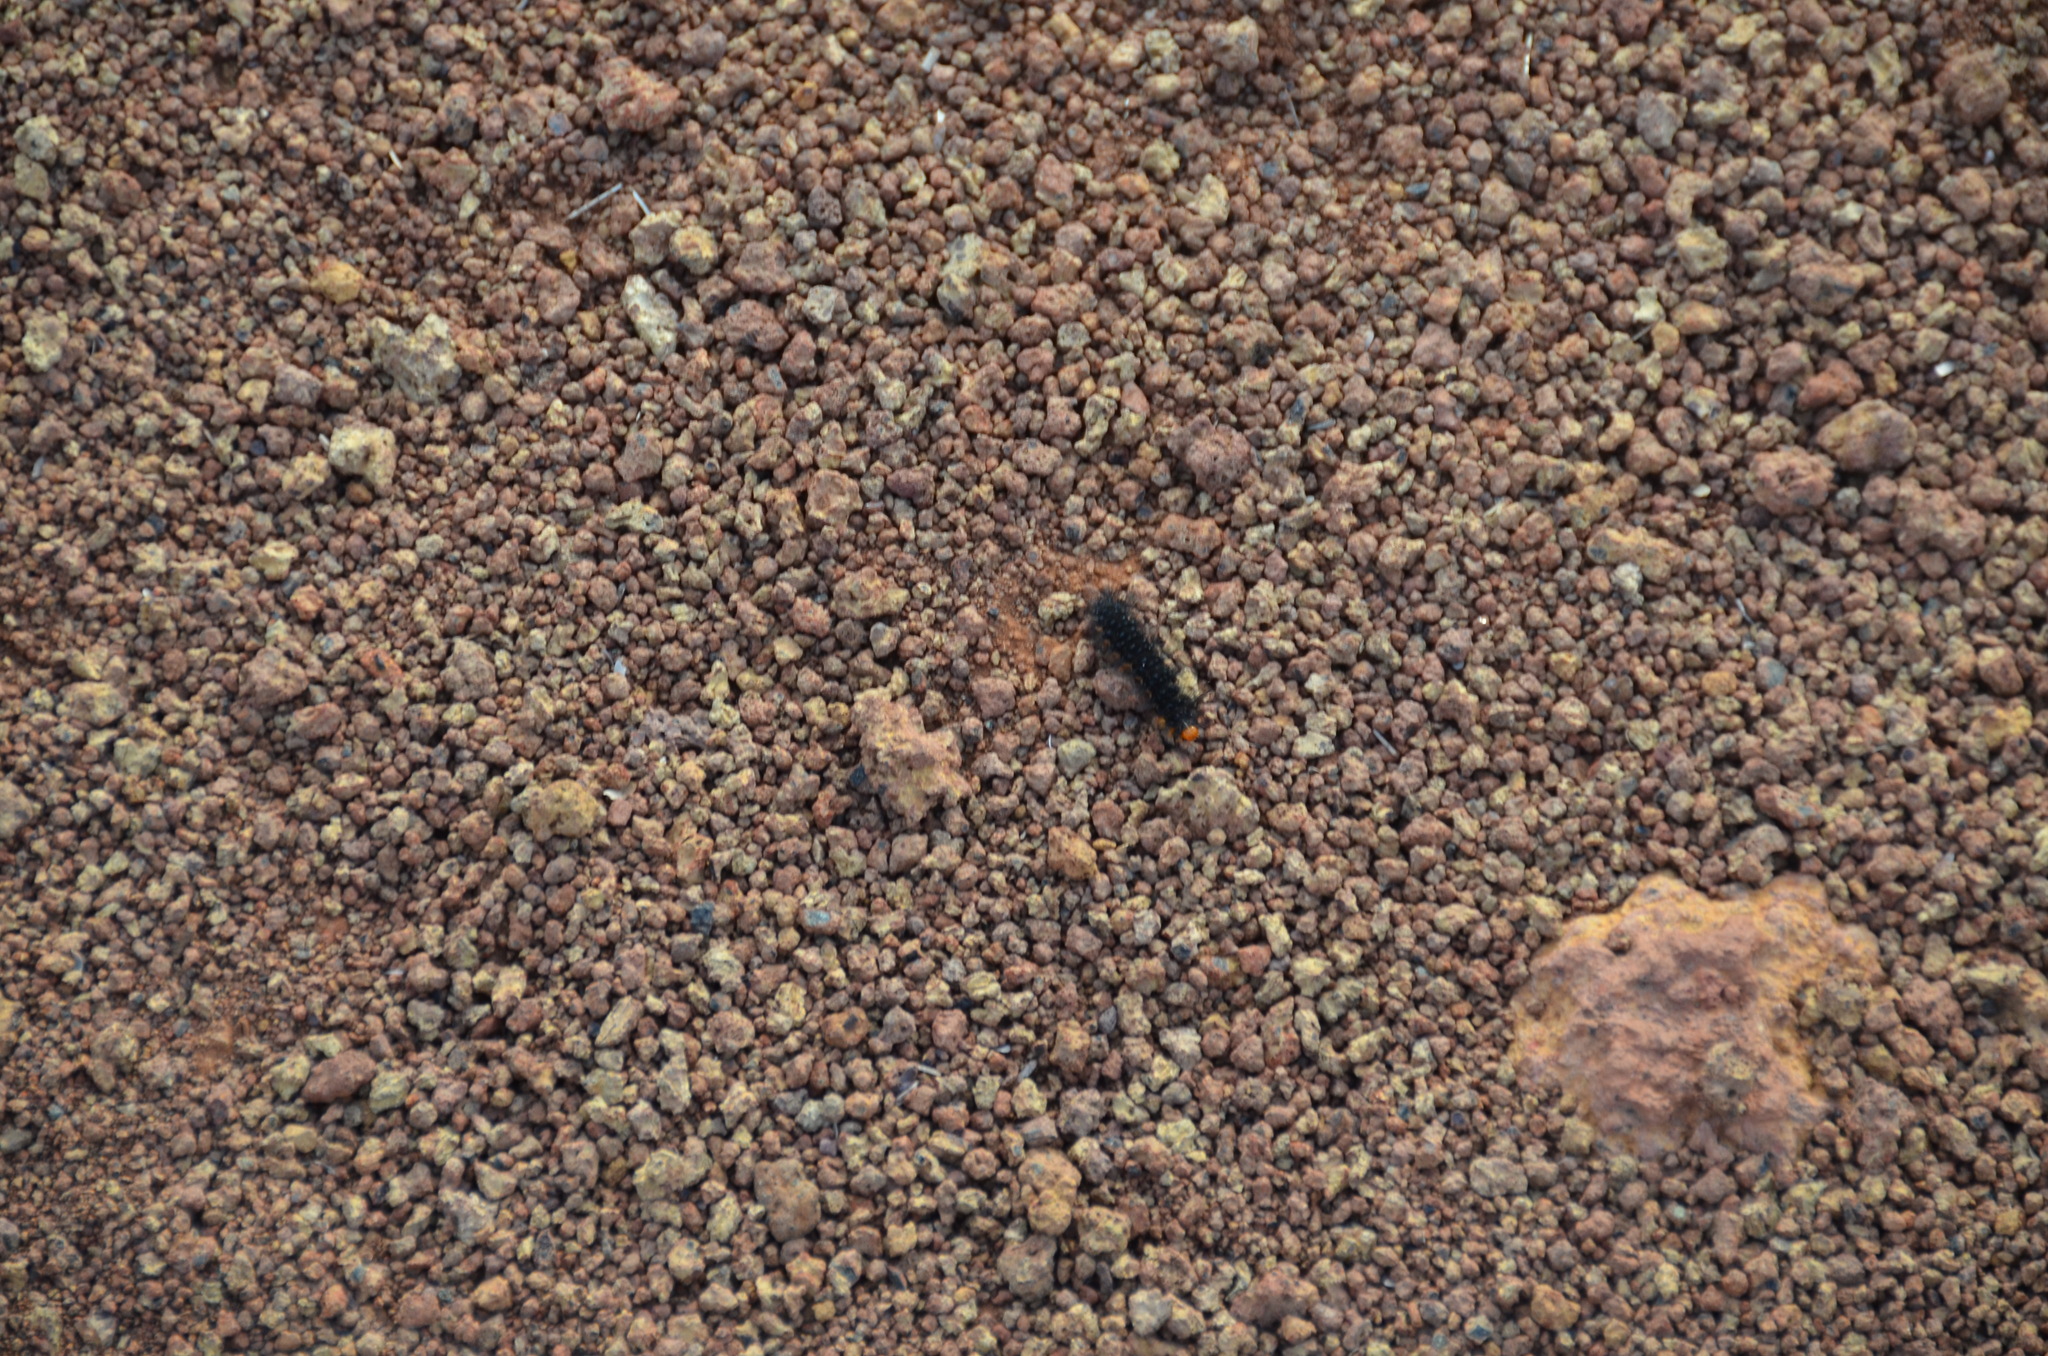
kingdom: Animalia
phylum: Arthropoda
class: Insecta
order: Lepidoptera
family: Erebidae
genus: Galtara
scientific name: Galtara extensa
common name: Madagascar moth
